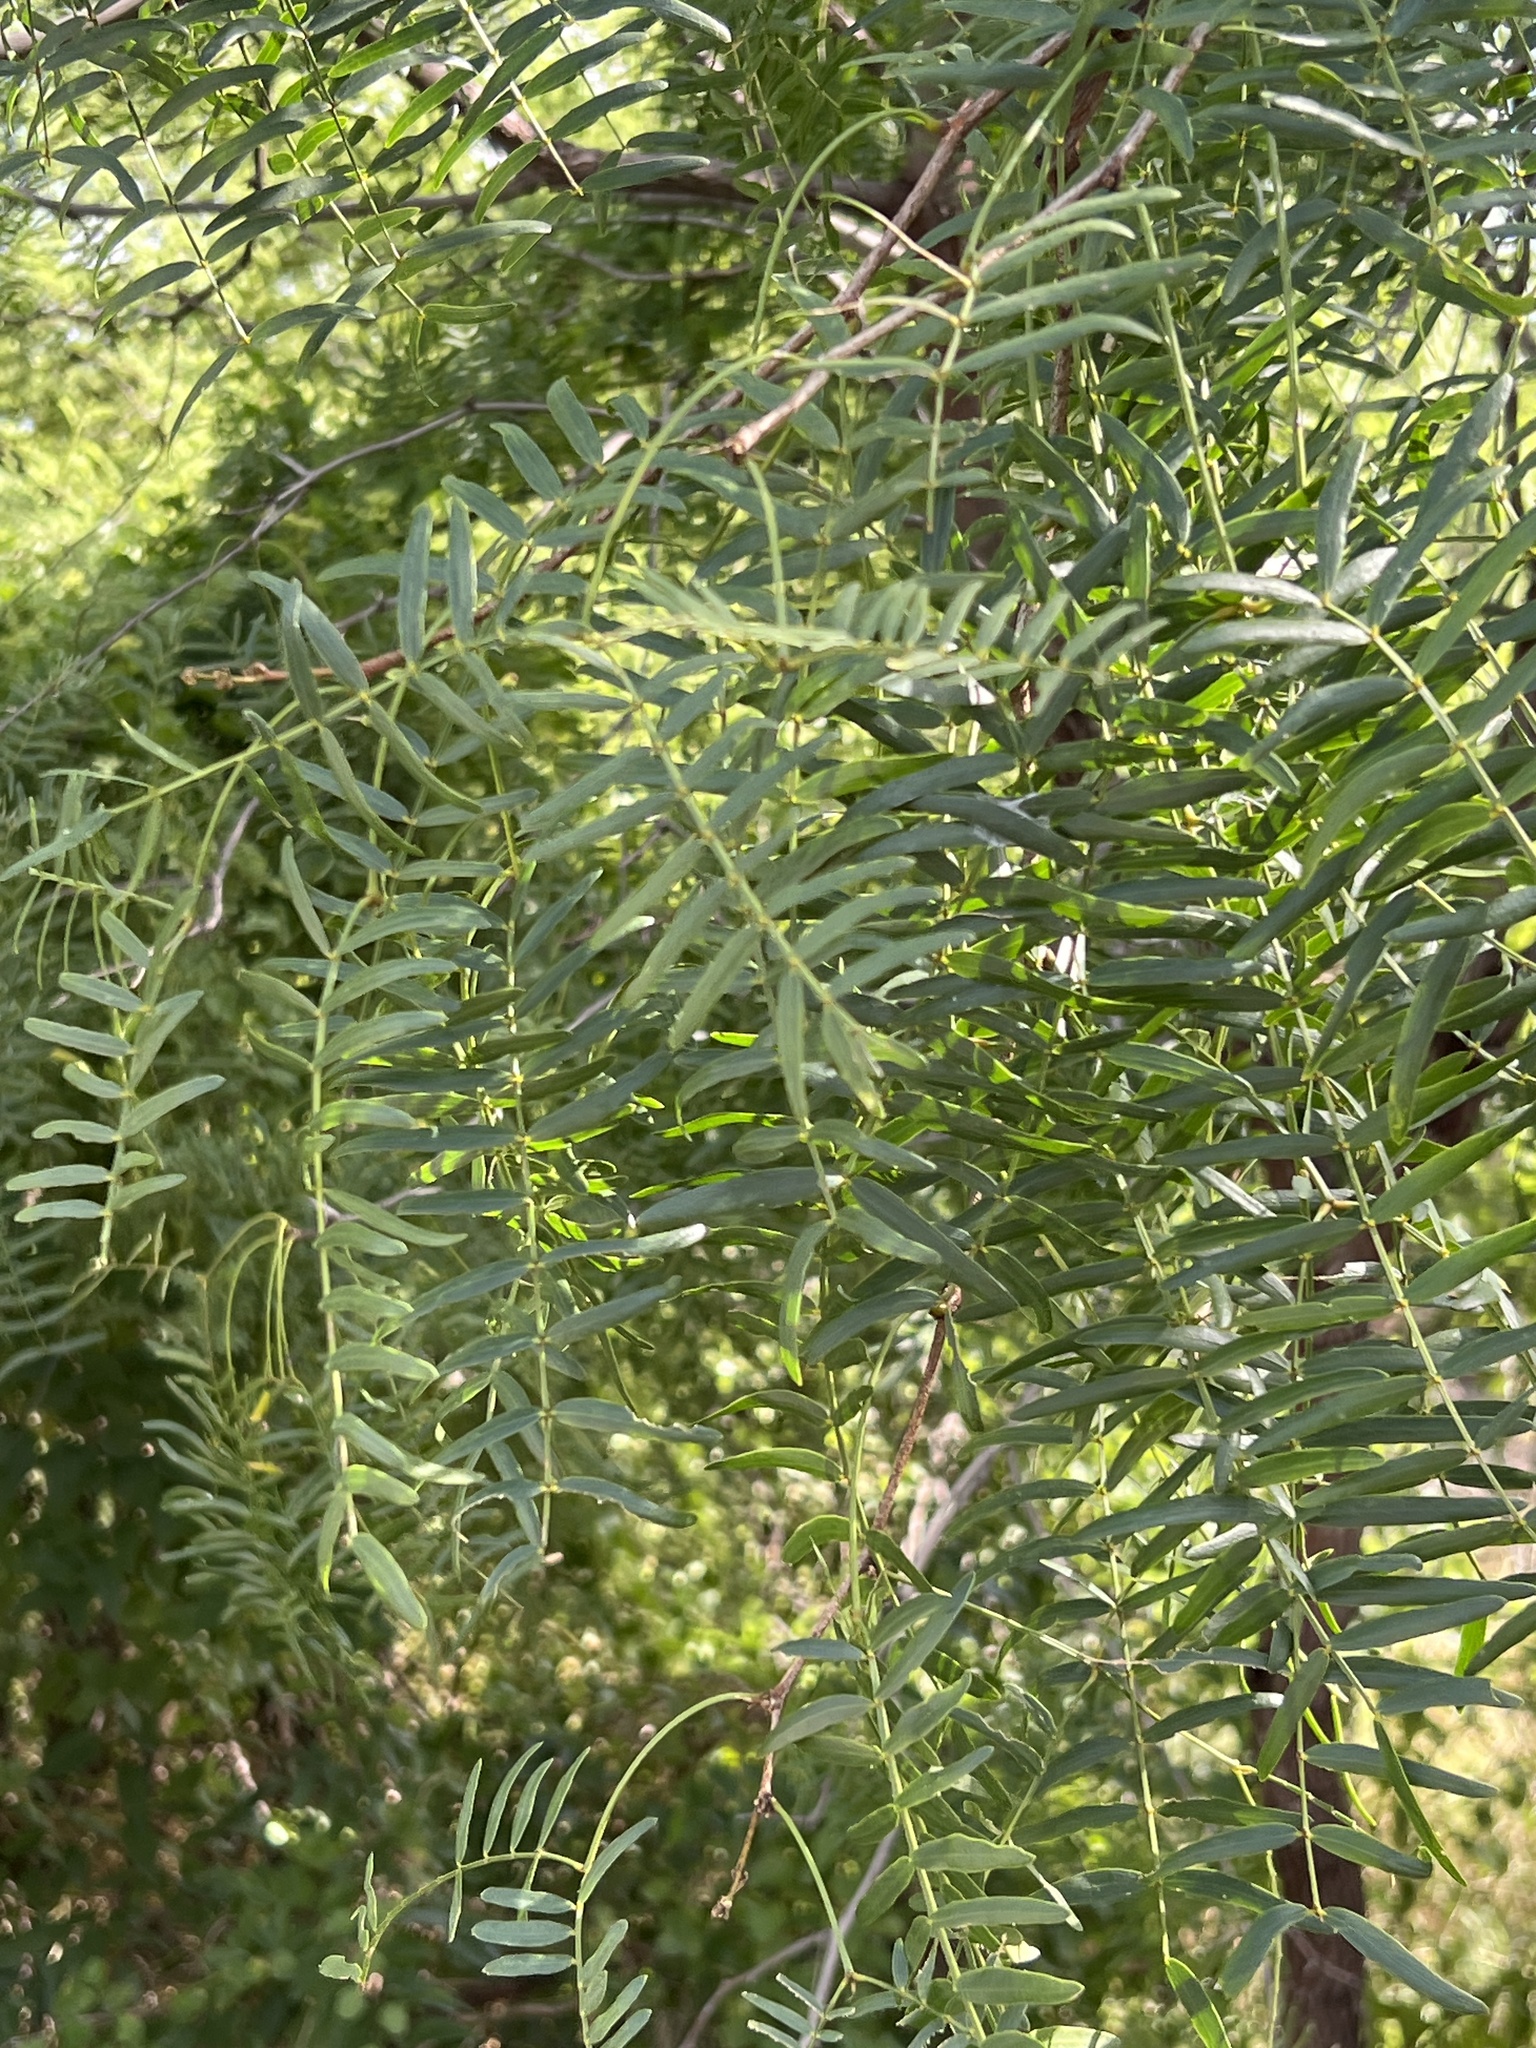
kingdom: Plantae
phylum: Tracheophyta
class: Magnoliopsida
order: Fabales
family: Fabaceae
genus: Prosopis
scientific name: Prosopis glandulosa
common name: Honey mesquite
